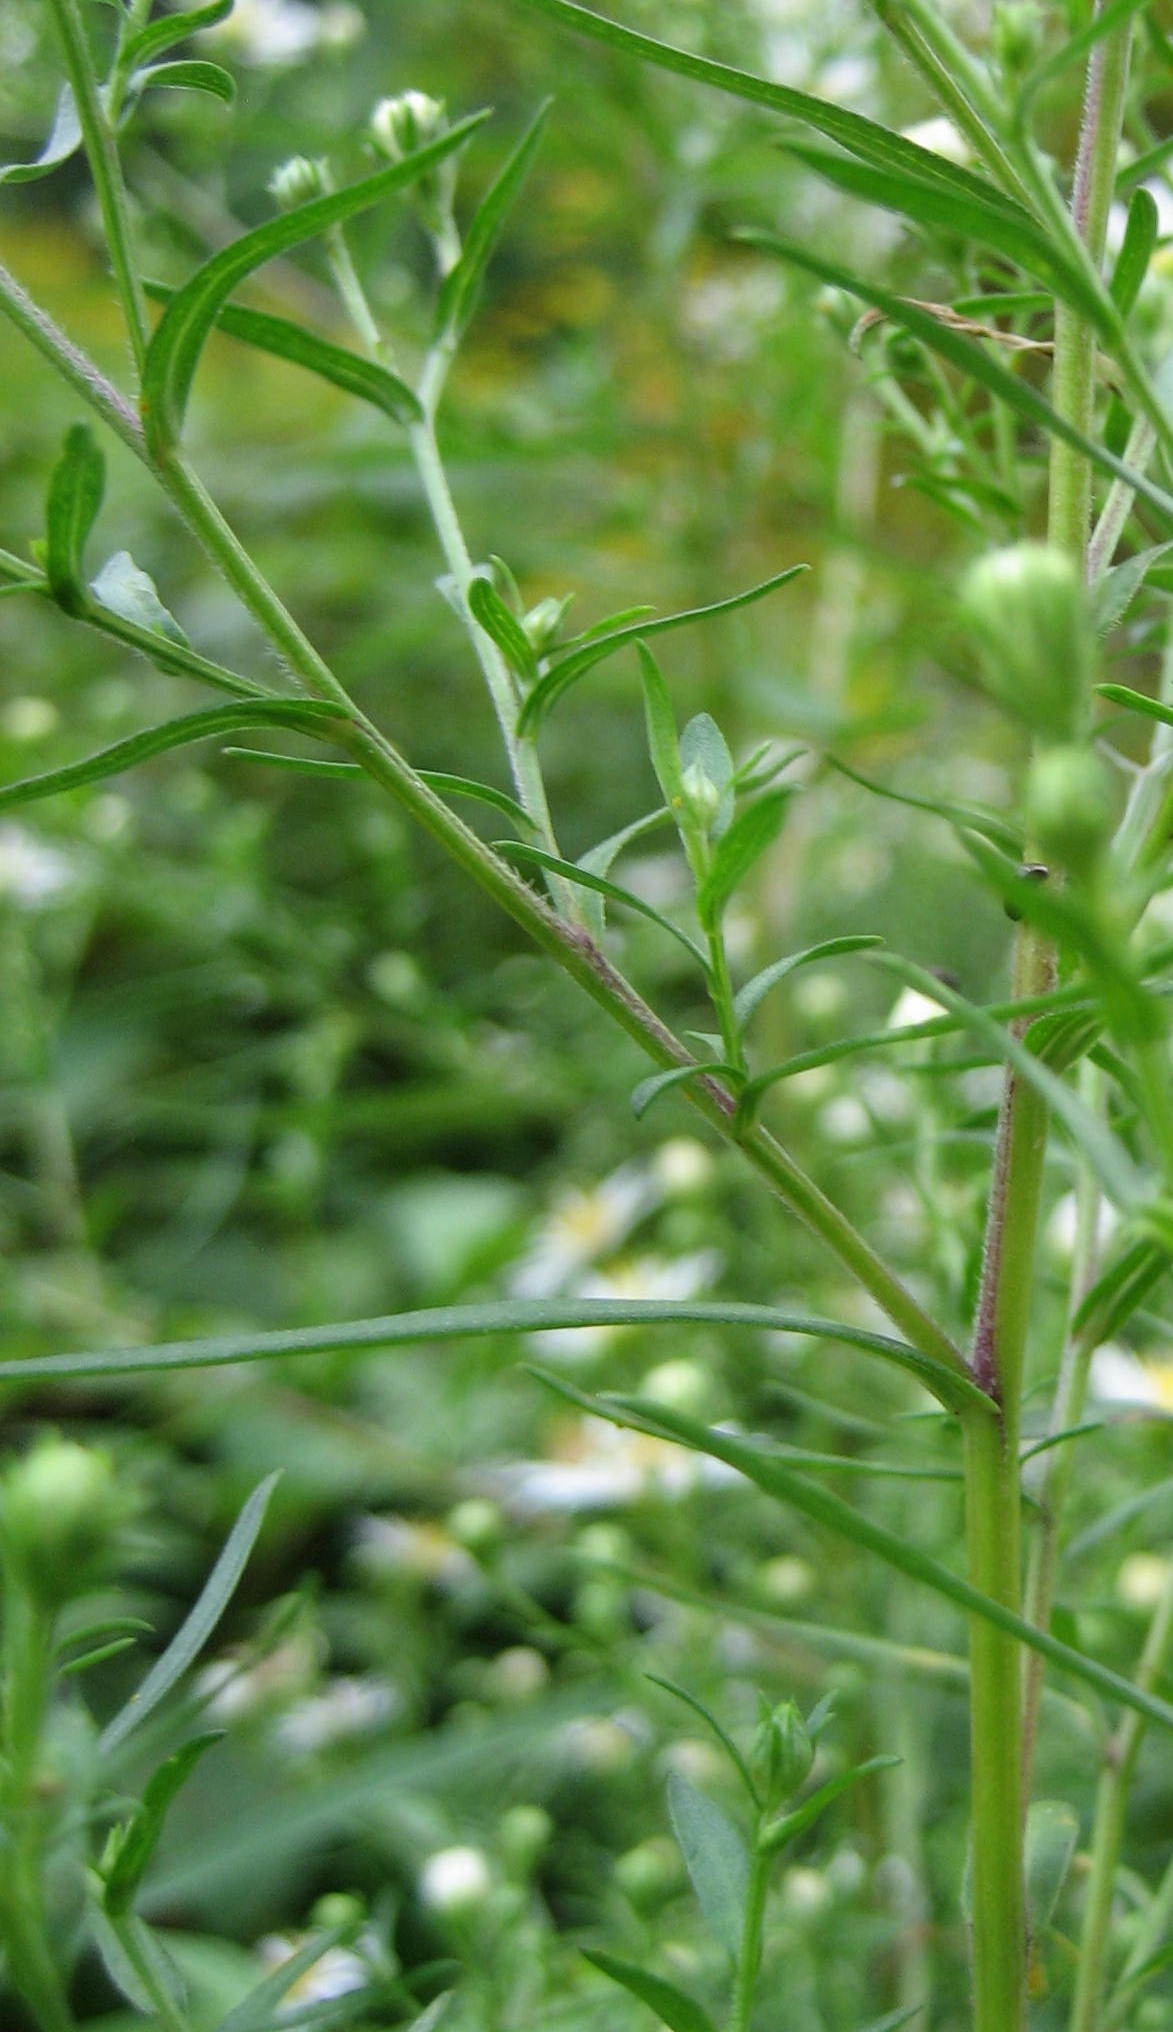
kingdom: Plantae
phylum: Tracheophyta
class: Magnoliopsida
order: Asterales
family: Asteraceae
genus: Symphyotrichum
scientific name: Symphyotrichum lanceolatum
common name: Panicled aster
